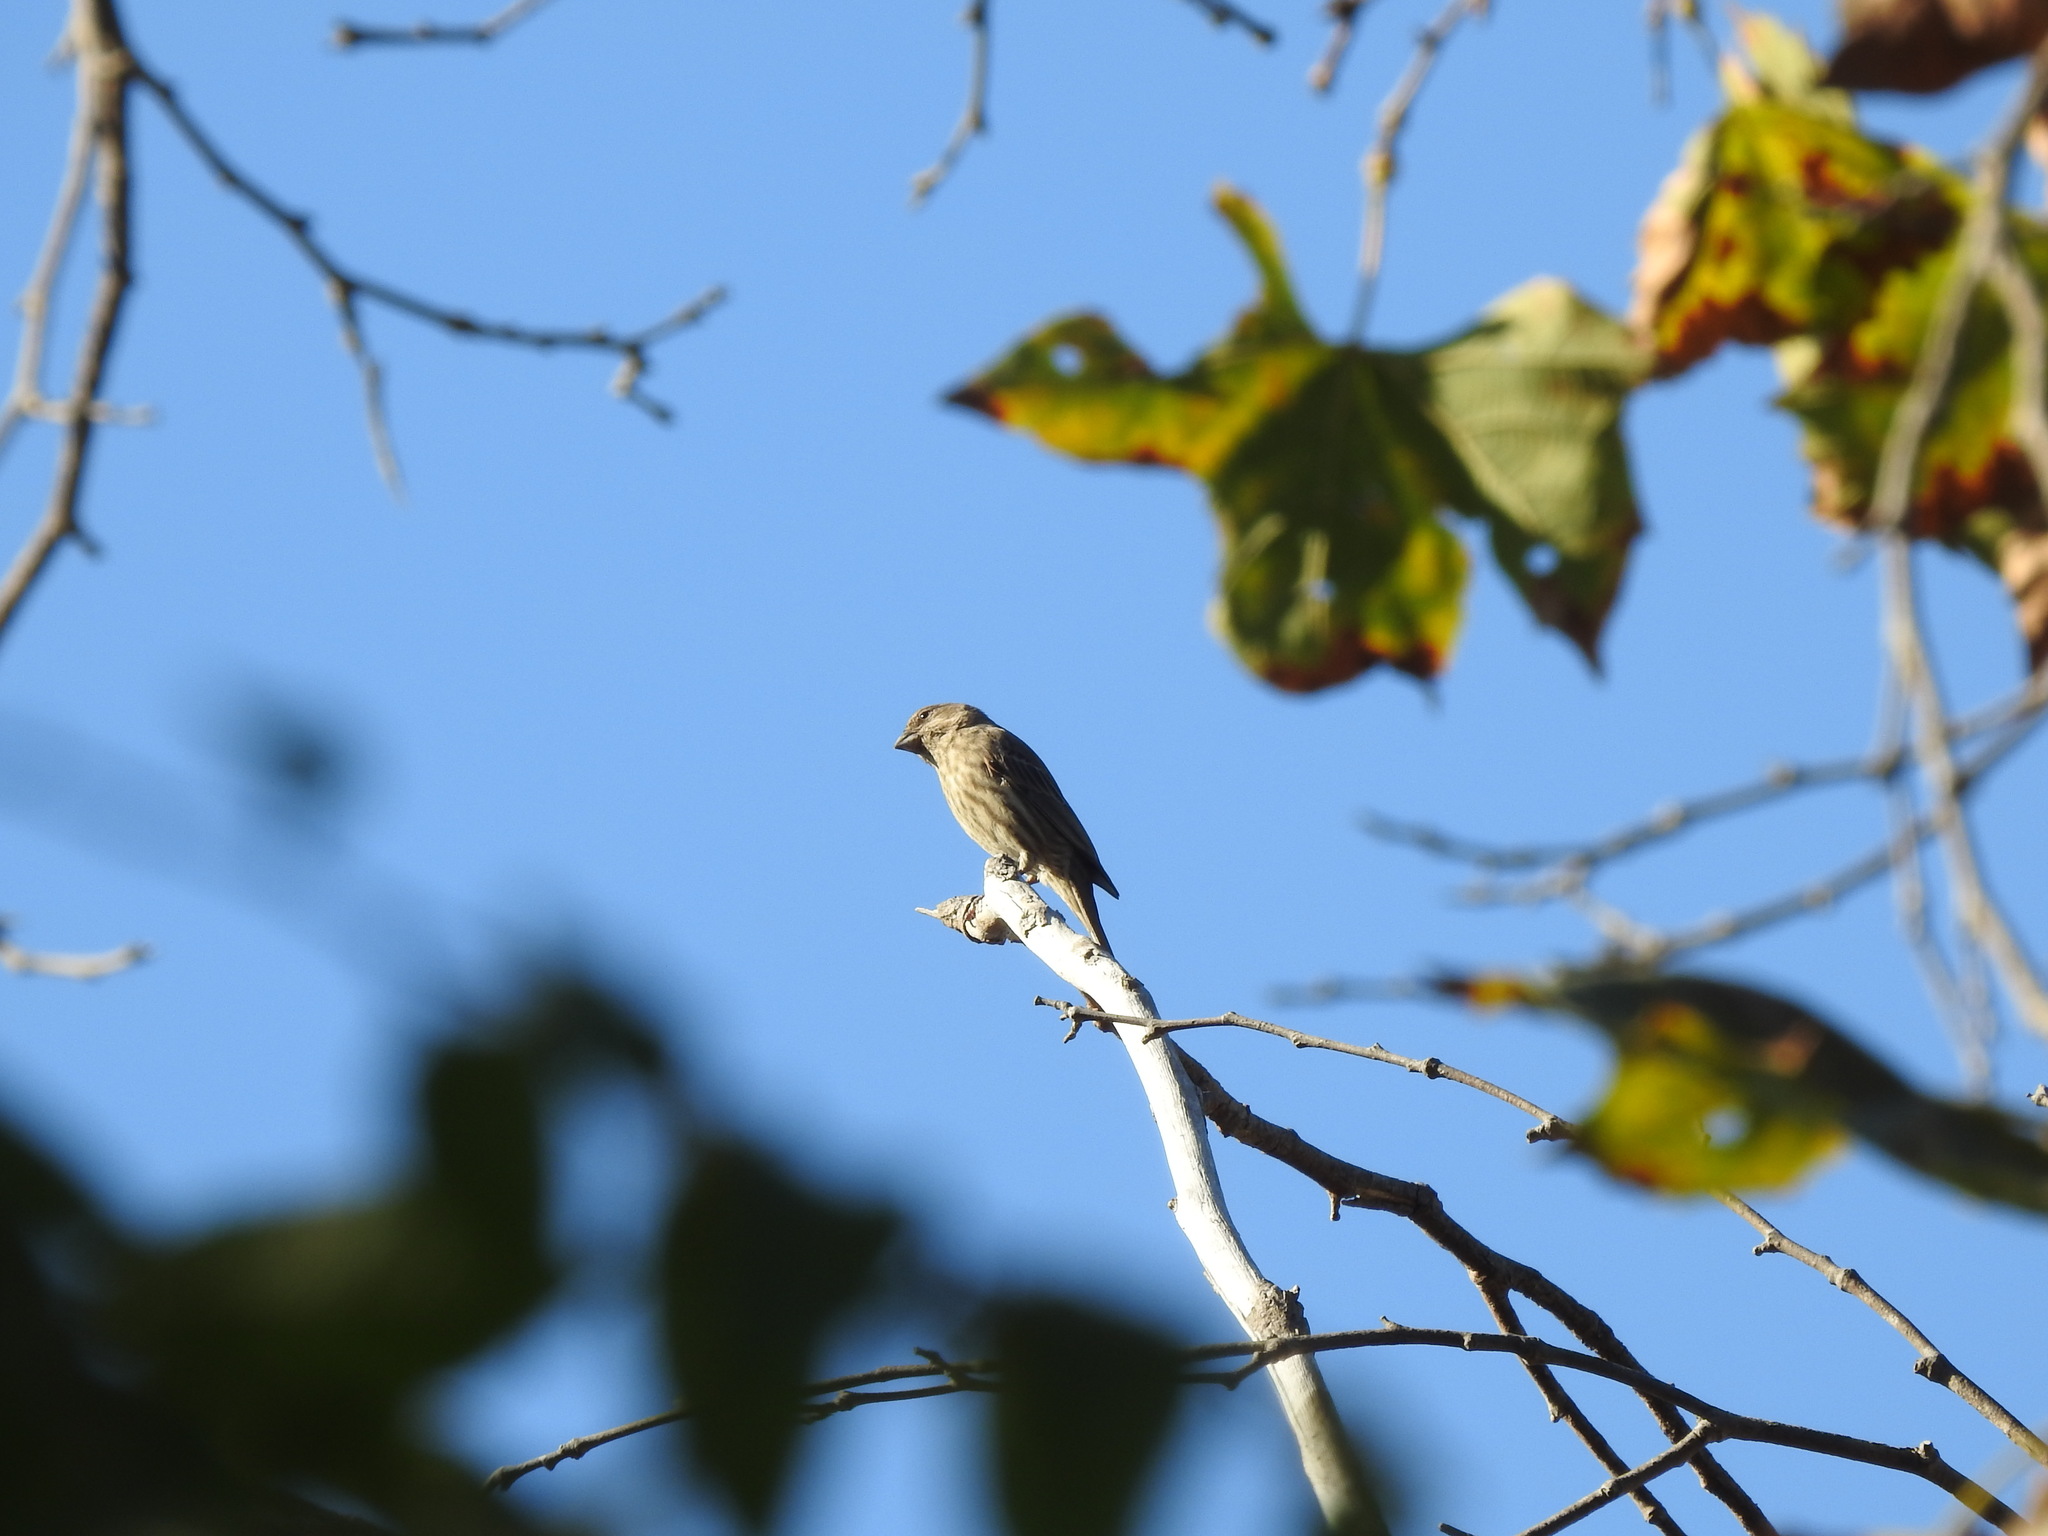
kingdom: Animalia
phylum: Chordata
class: Aves
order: Passeriformes
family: Fringillidae
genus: Haemorhous
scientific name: Haemorhous mexicanus
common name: House finch
